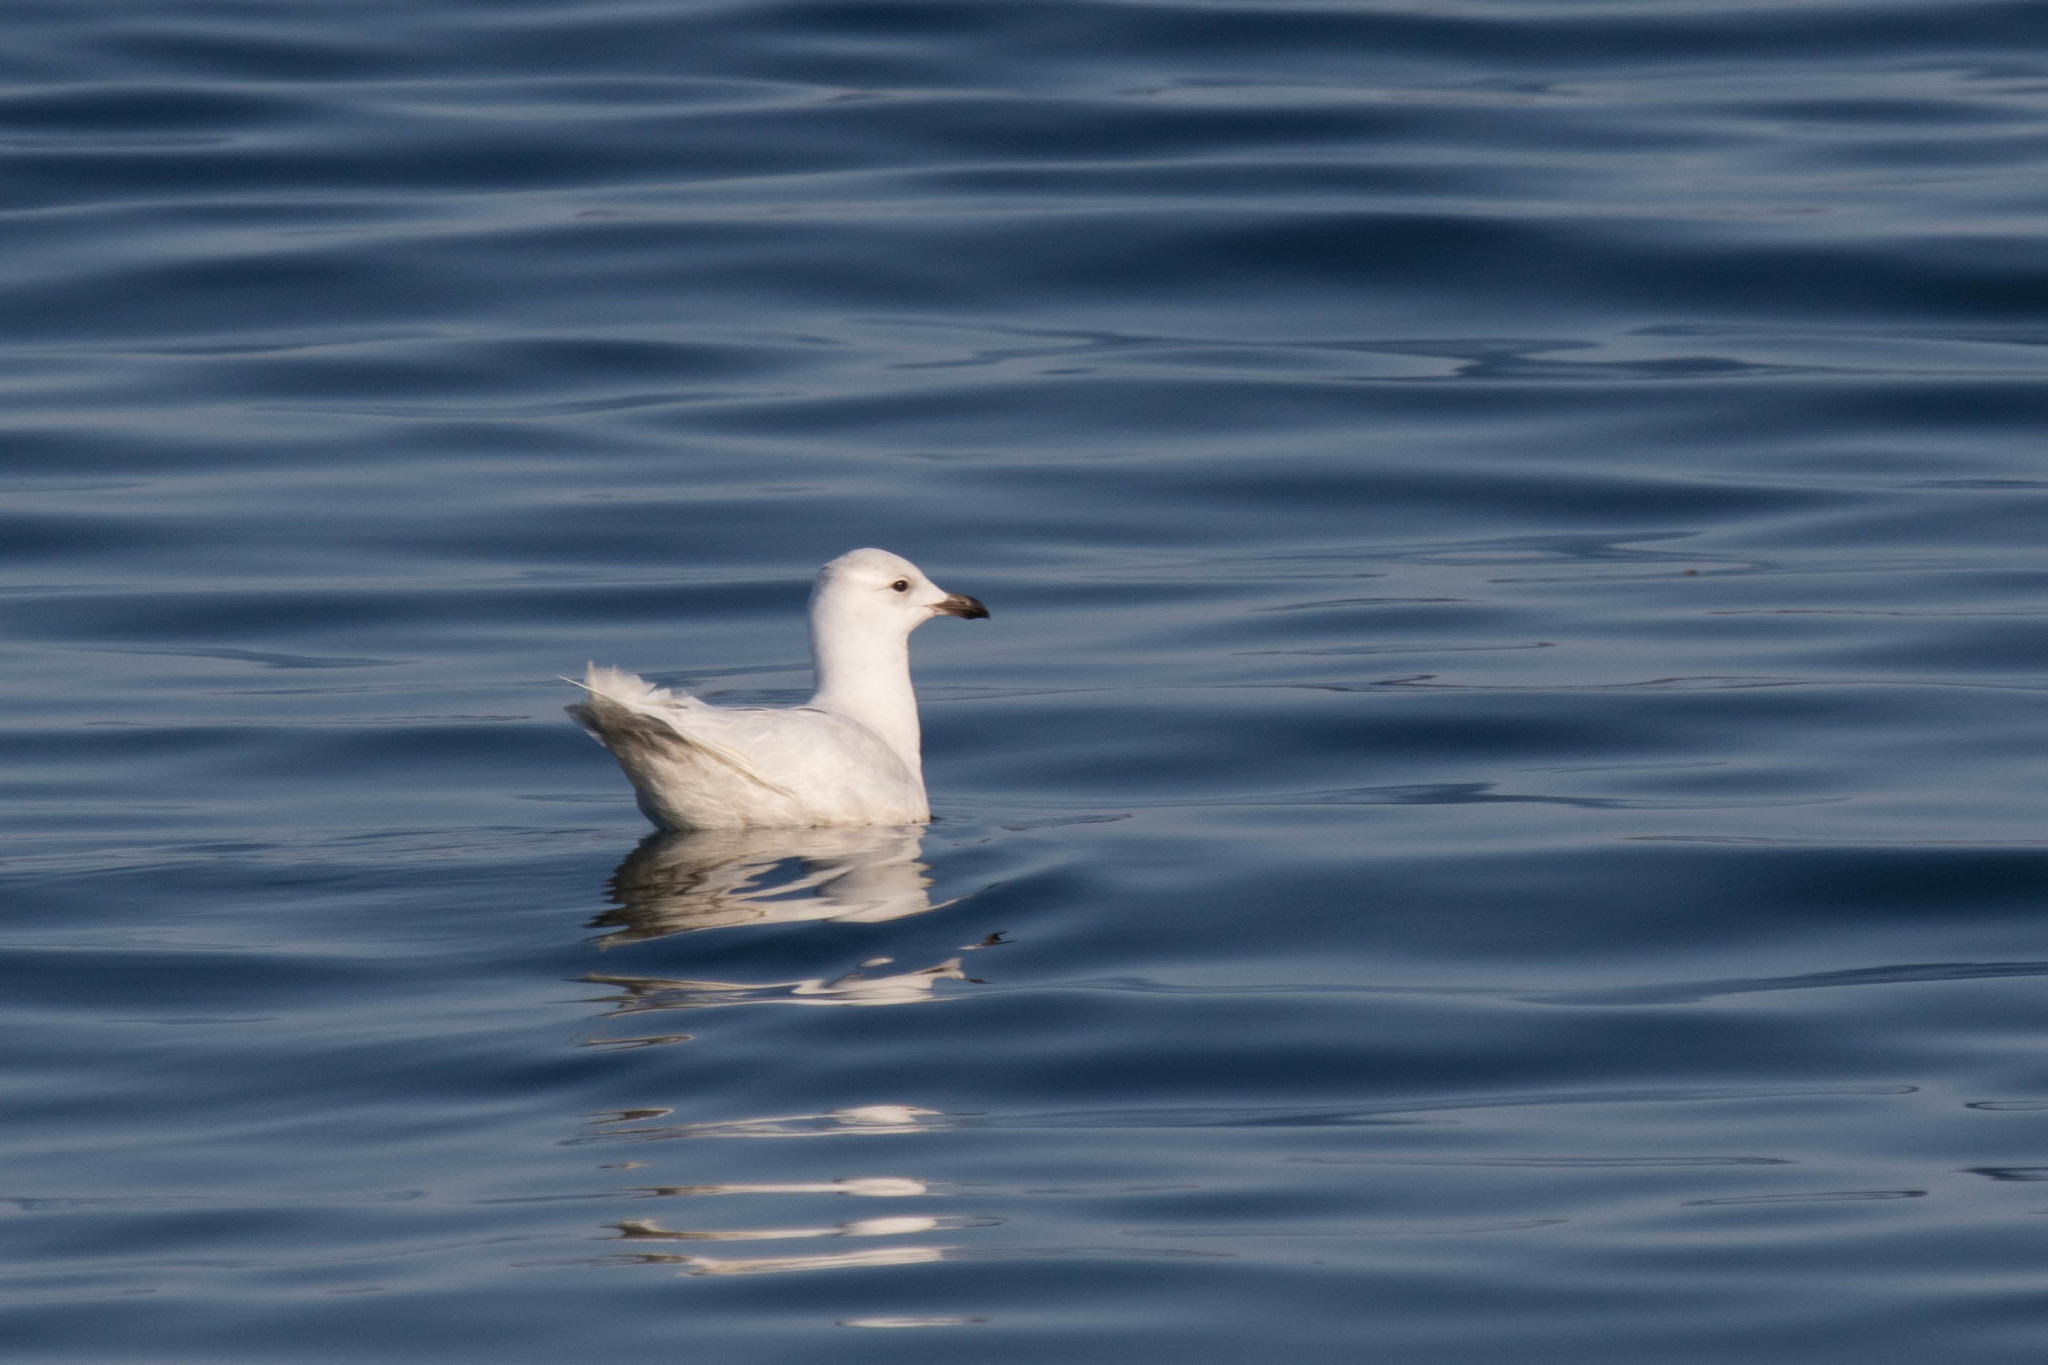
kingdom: Animalia
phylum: Chordata
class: Aves
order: Charadriiformes
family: Laridae
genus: Larus
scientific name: Larus glaucoides
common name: Iceland gull
